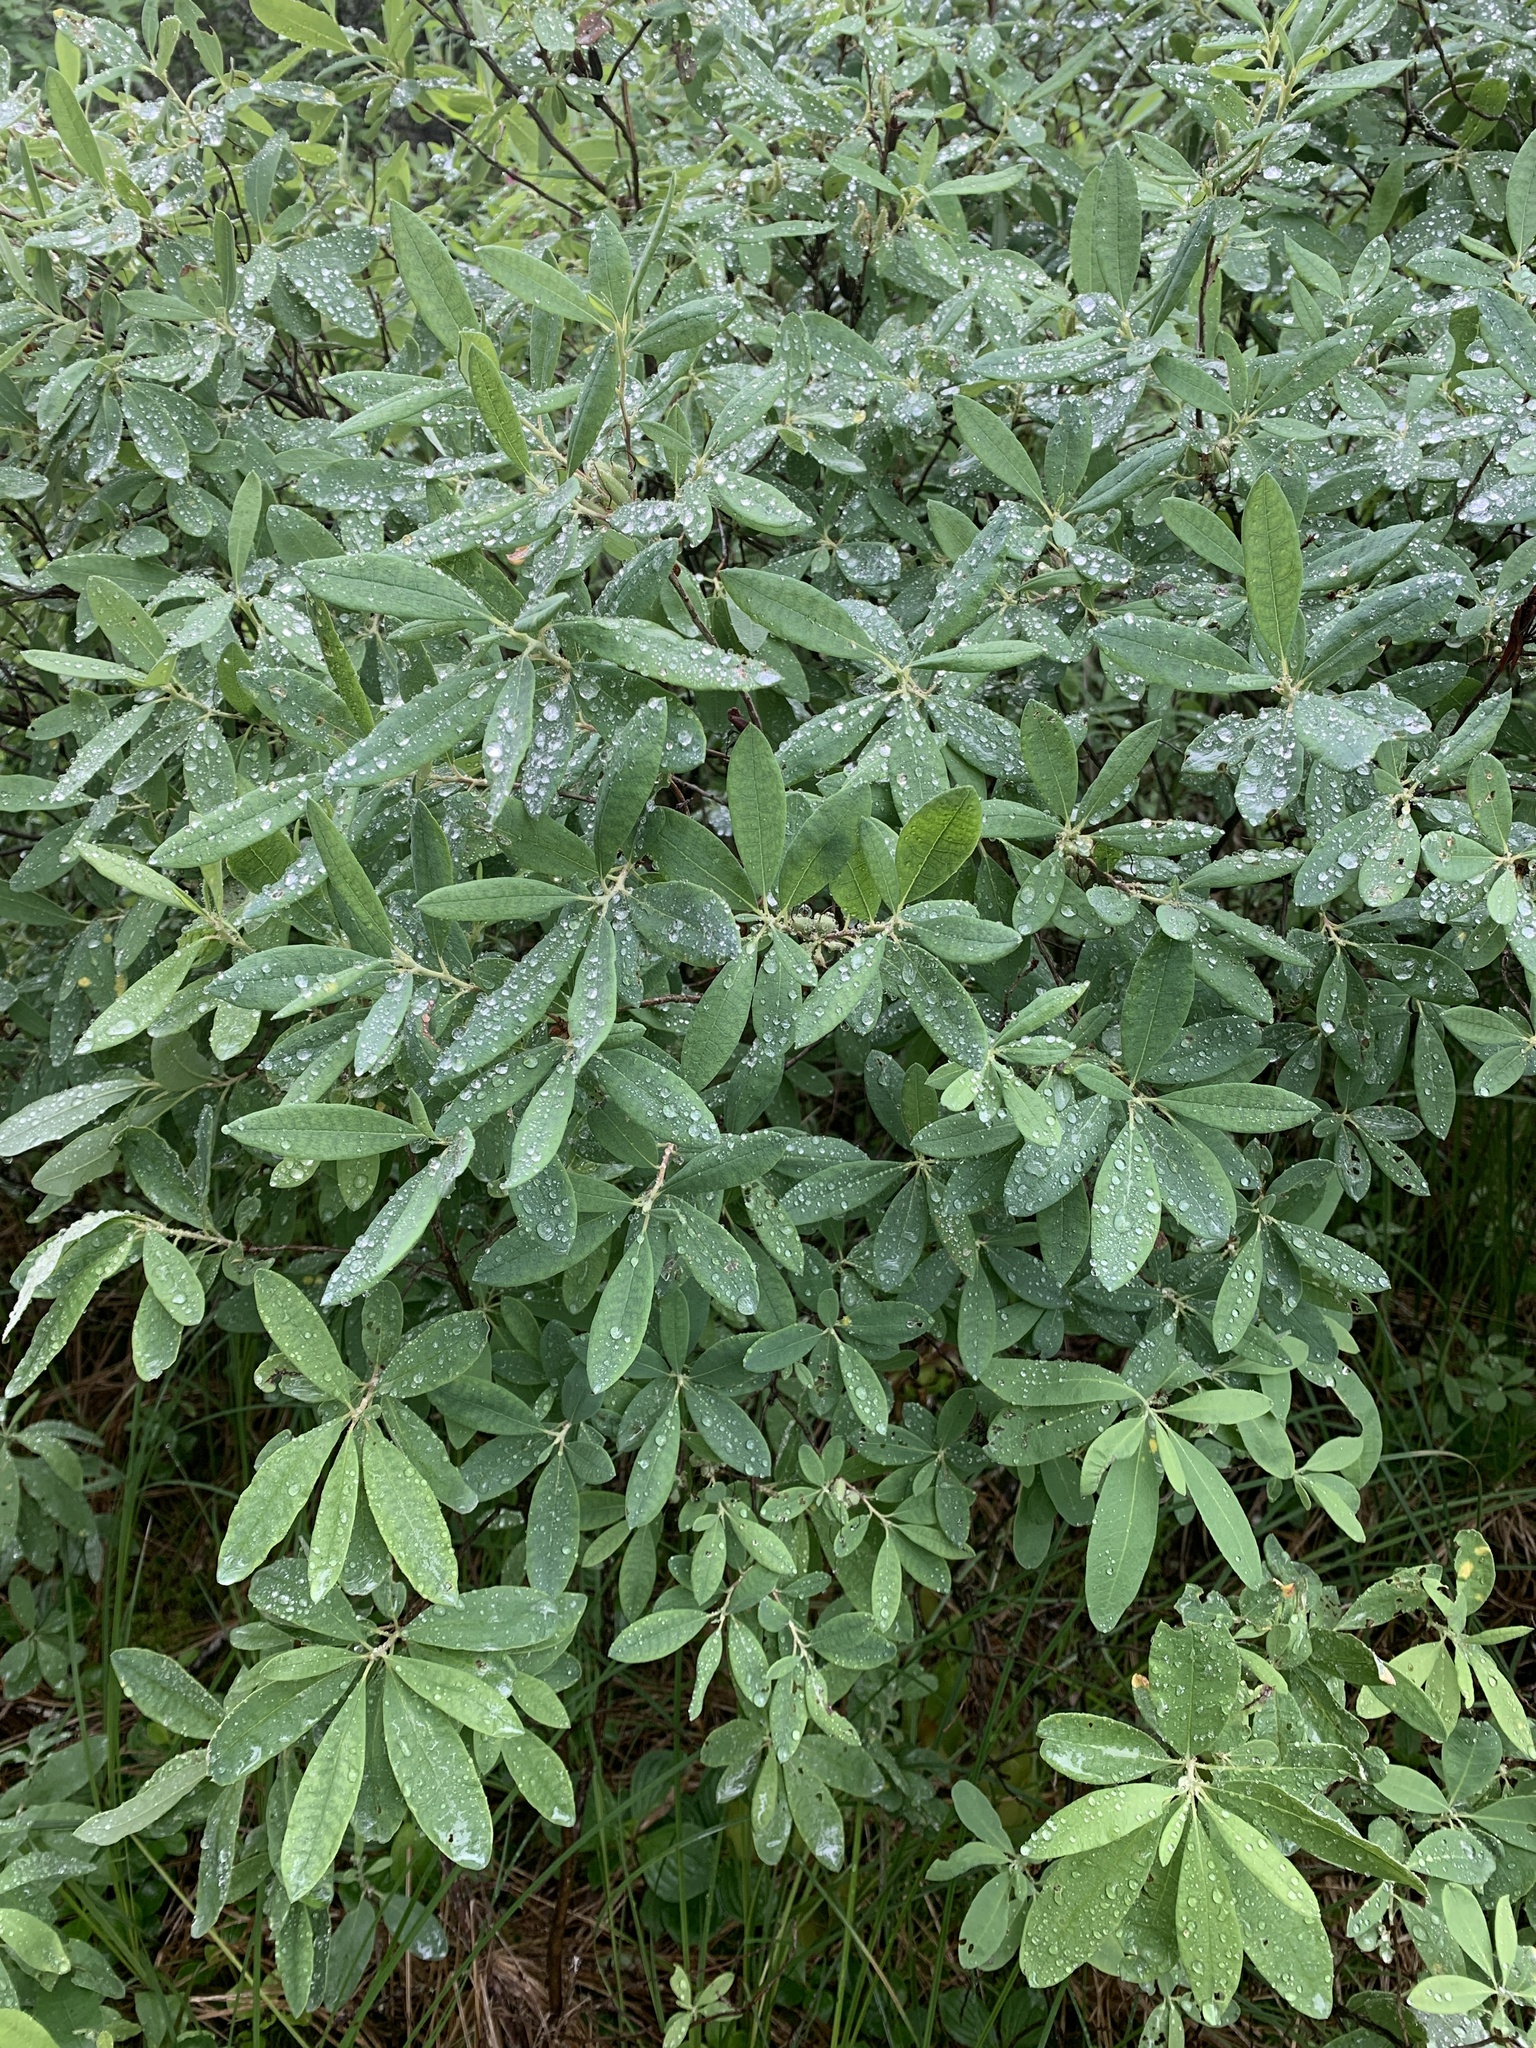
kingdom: Plantae
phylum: Tracheophyta
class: Magnoliopsida
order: Ericales
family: Ericaceae
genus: Rhododendron
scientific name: Rhododendron canadense
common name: Rhodora
